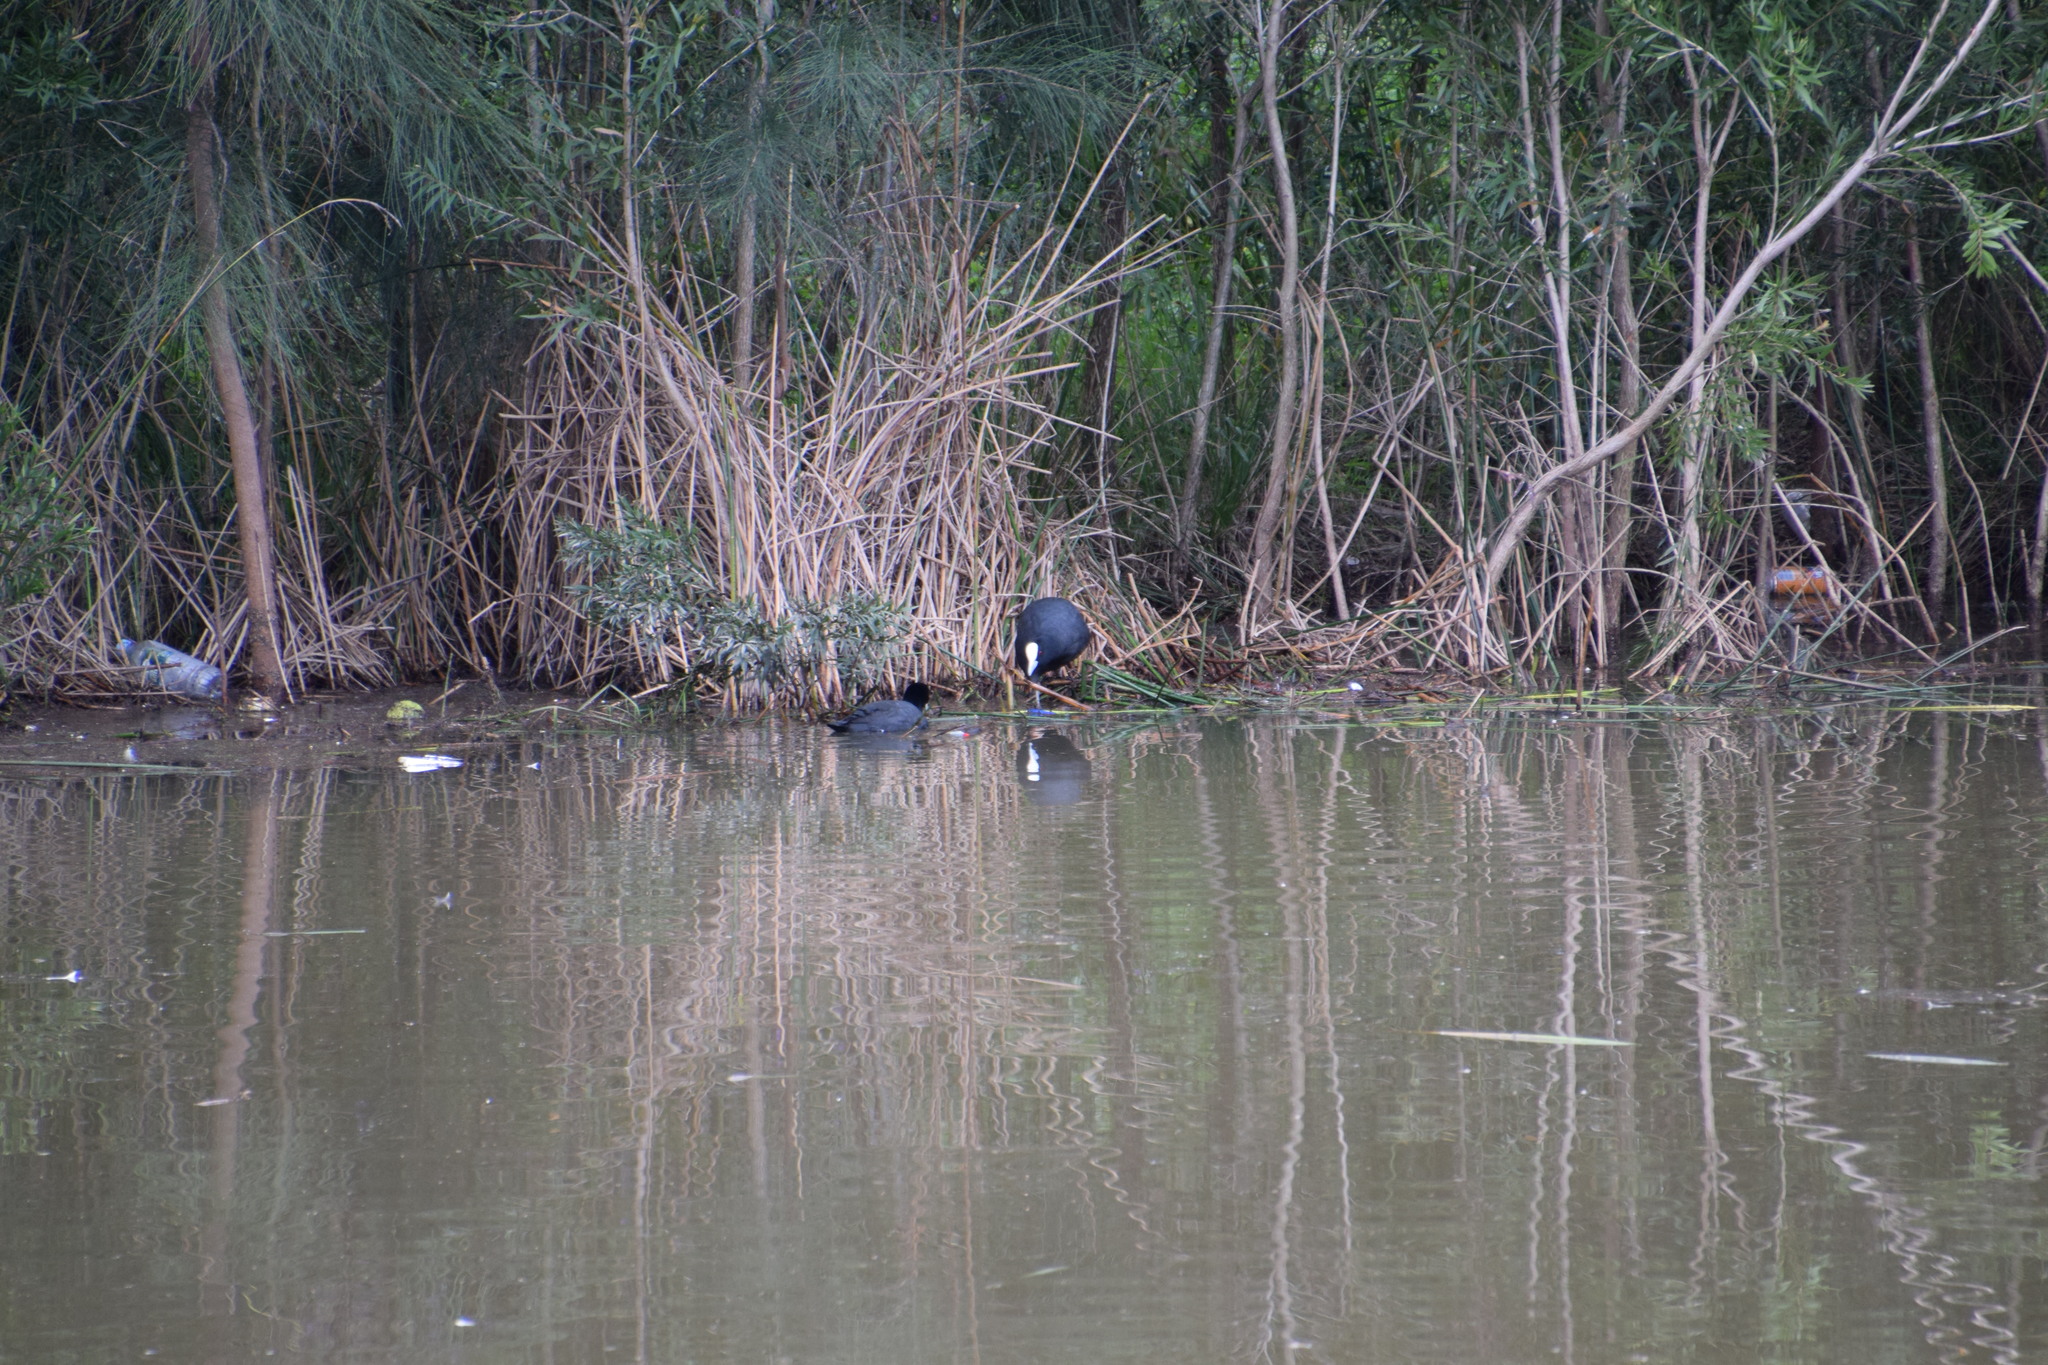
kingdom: Animalia
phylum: Chordata
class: Aves
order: Gruiformes
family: Rallidae
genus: Fulica
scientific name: Fulica atra
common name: Eurasian coot
